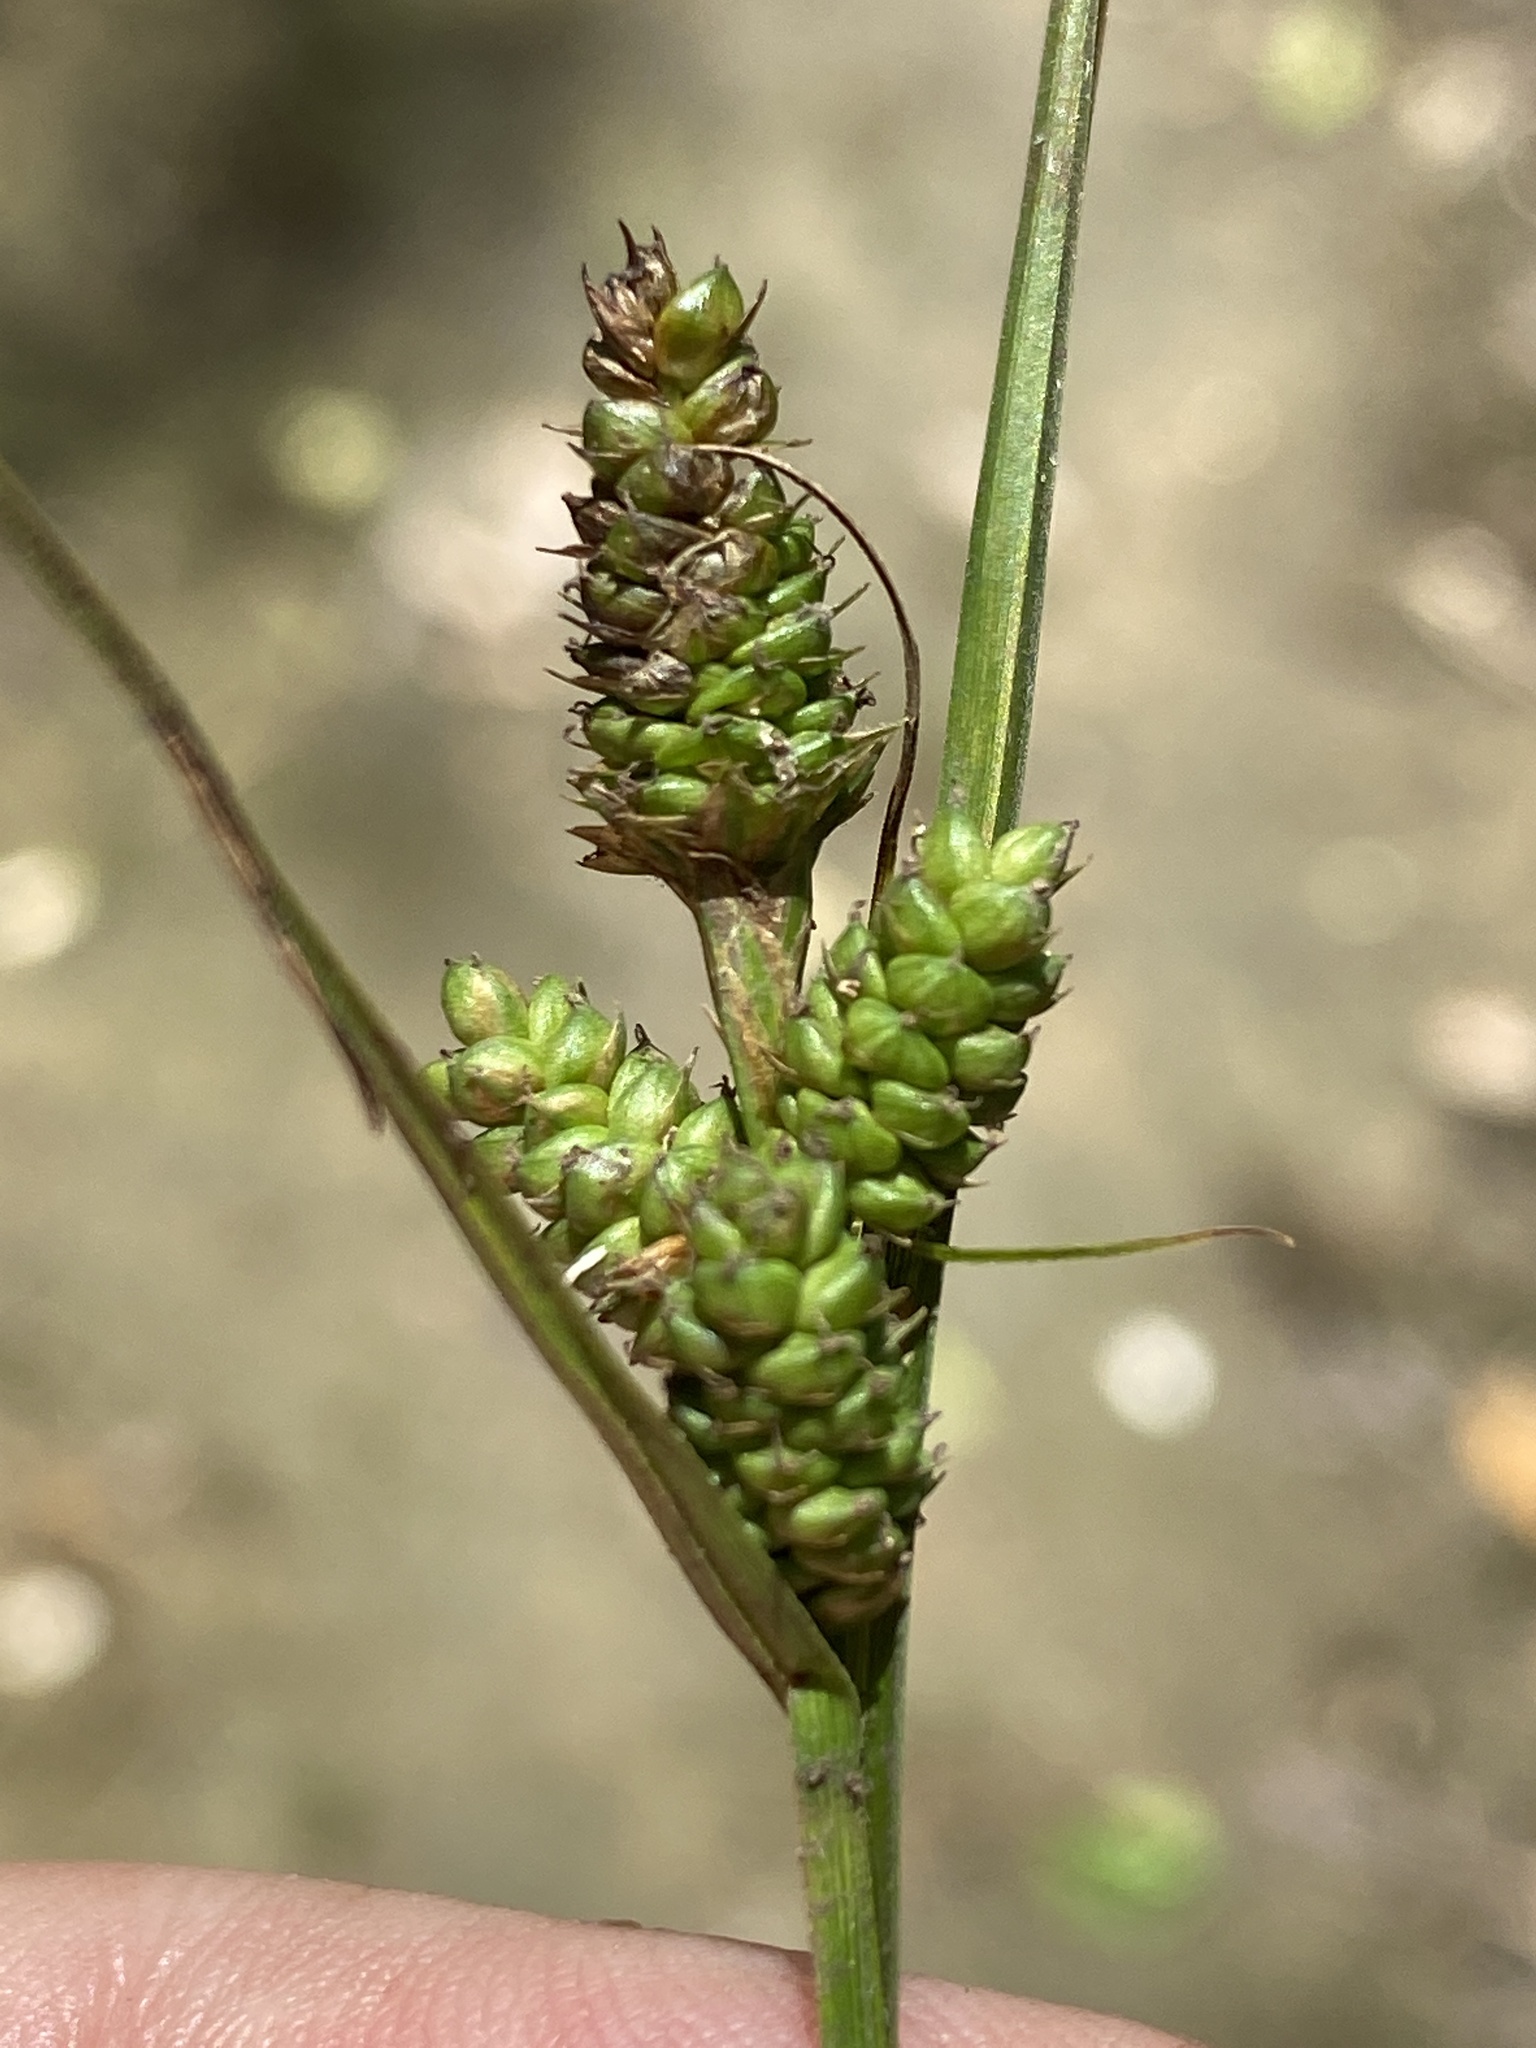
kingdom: Plantae
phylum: Tracheophyta
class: Liliopsida
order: Poales
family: Cyperaceae
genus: Carex
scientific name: Carex complanata
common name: Hirsute sedge
